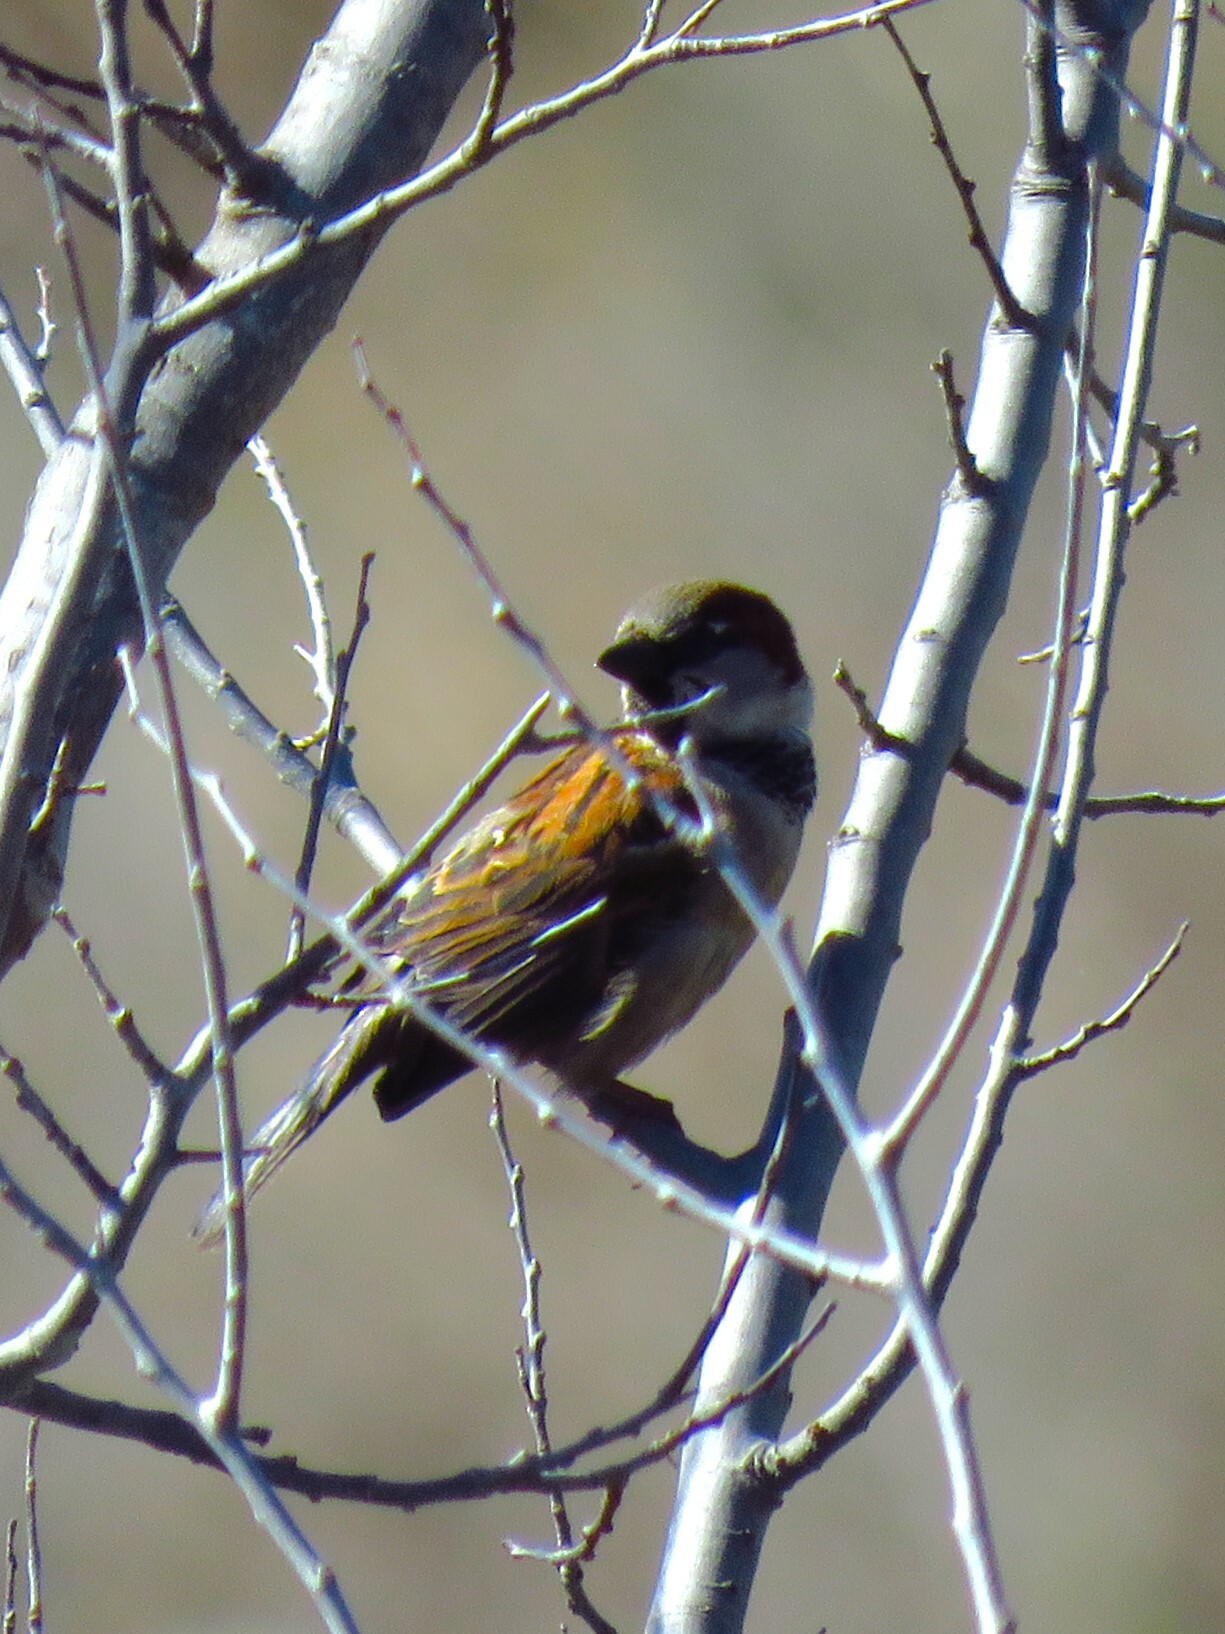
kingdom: Animalia
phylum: Chordata
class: Aves
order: Passeriformes
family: Passeridae
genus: Passer
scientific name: Passer domesticus
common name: House sparrow
